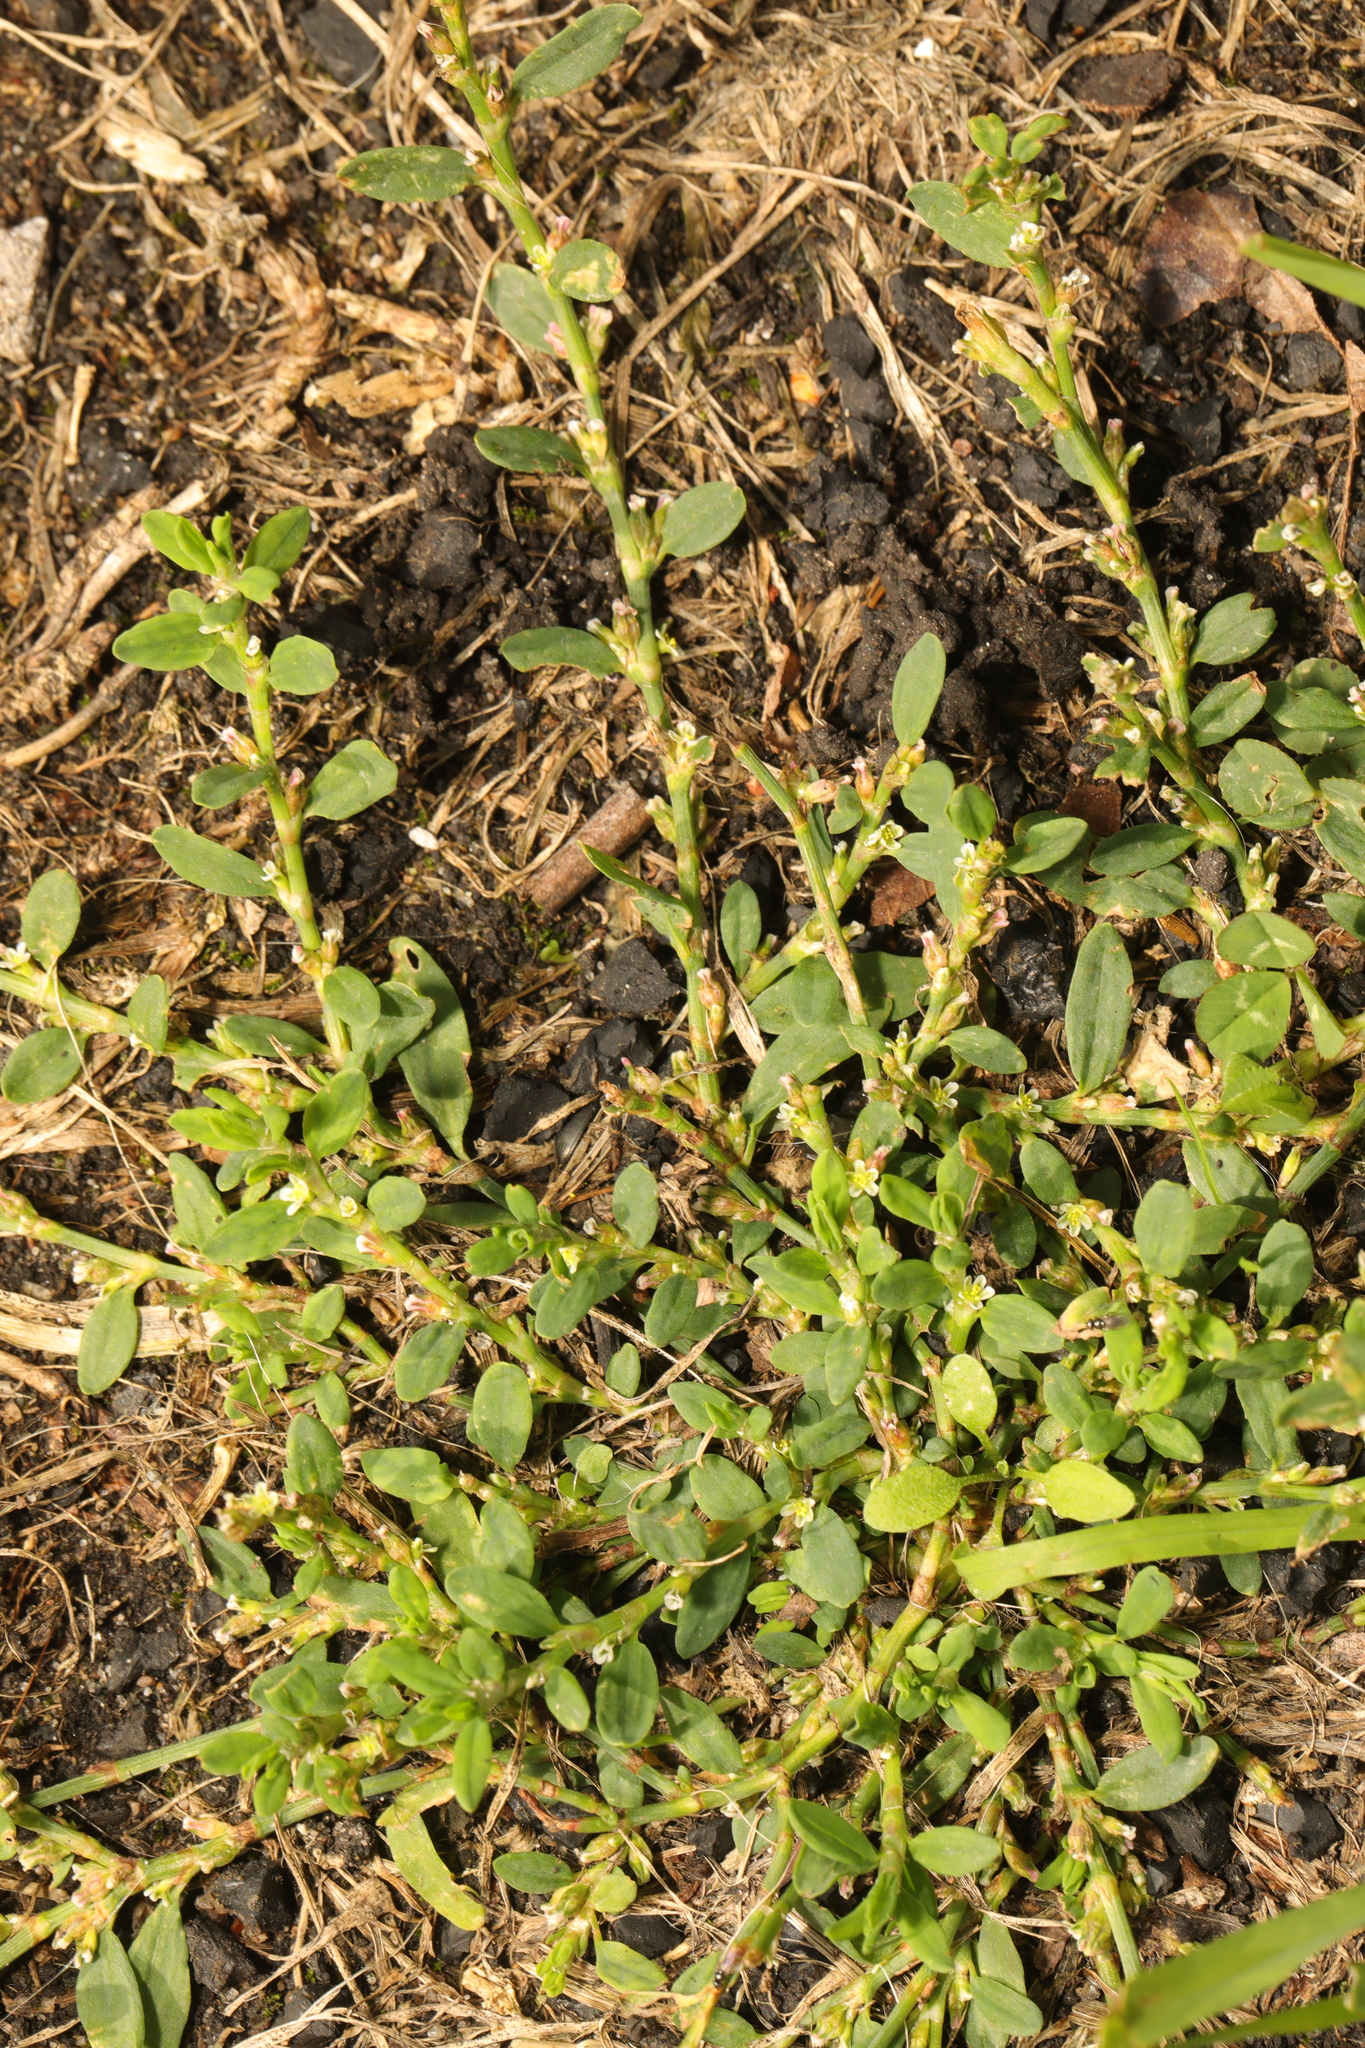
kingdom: Plantae
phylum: Tracheophyta
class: Magnoliopsida
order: Caryophyllales
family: Polygonaceae
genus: Polygonum
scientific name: Polygonum aviculare
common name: Prostrate knotweed
